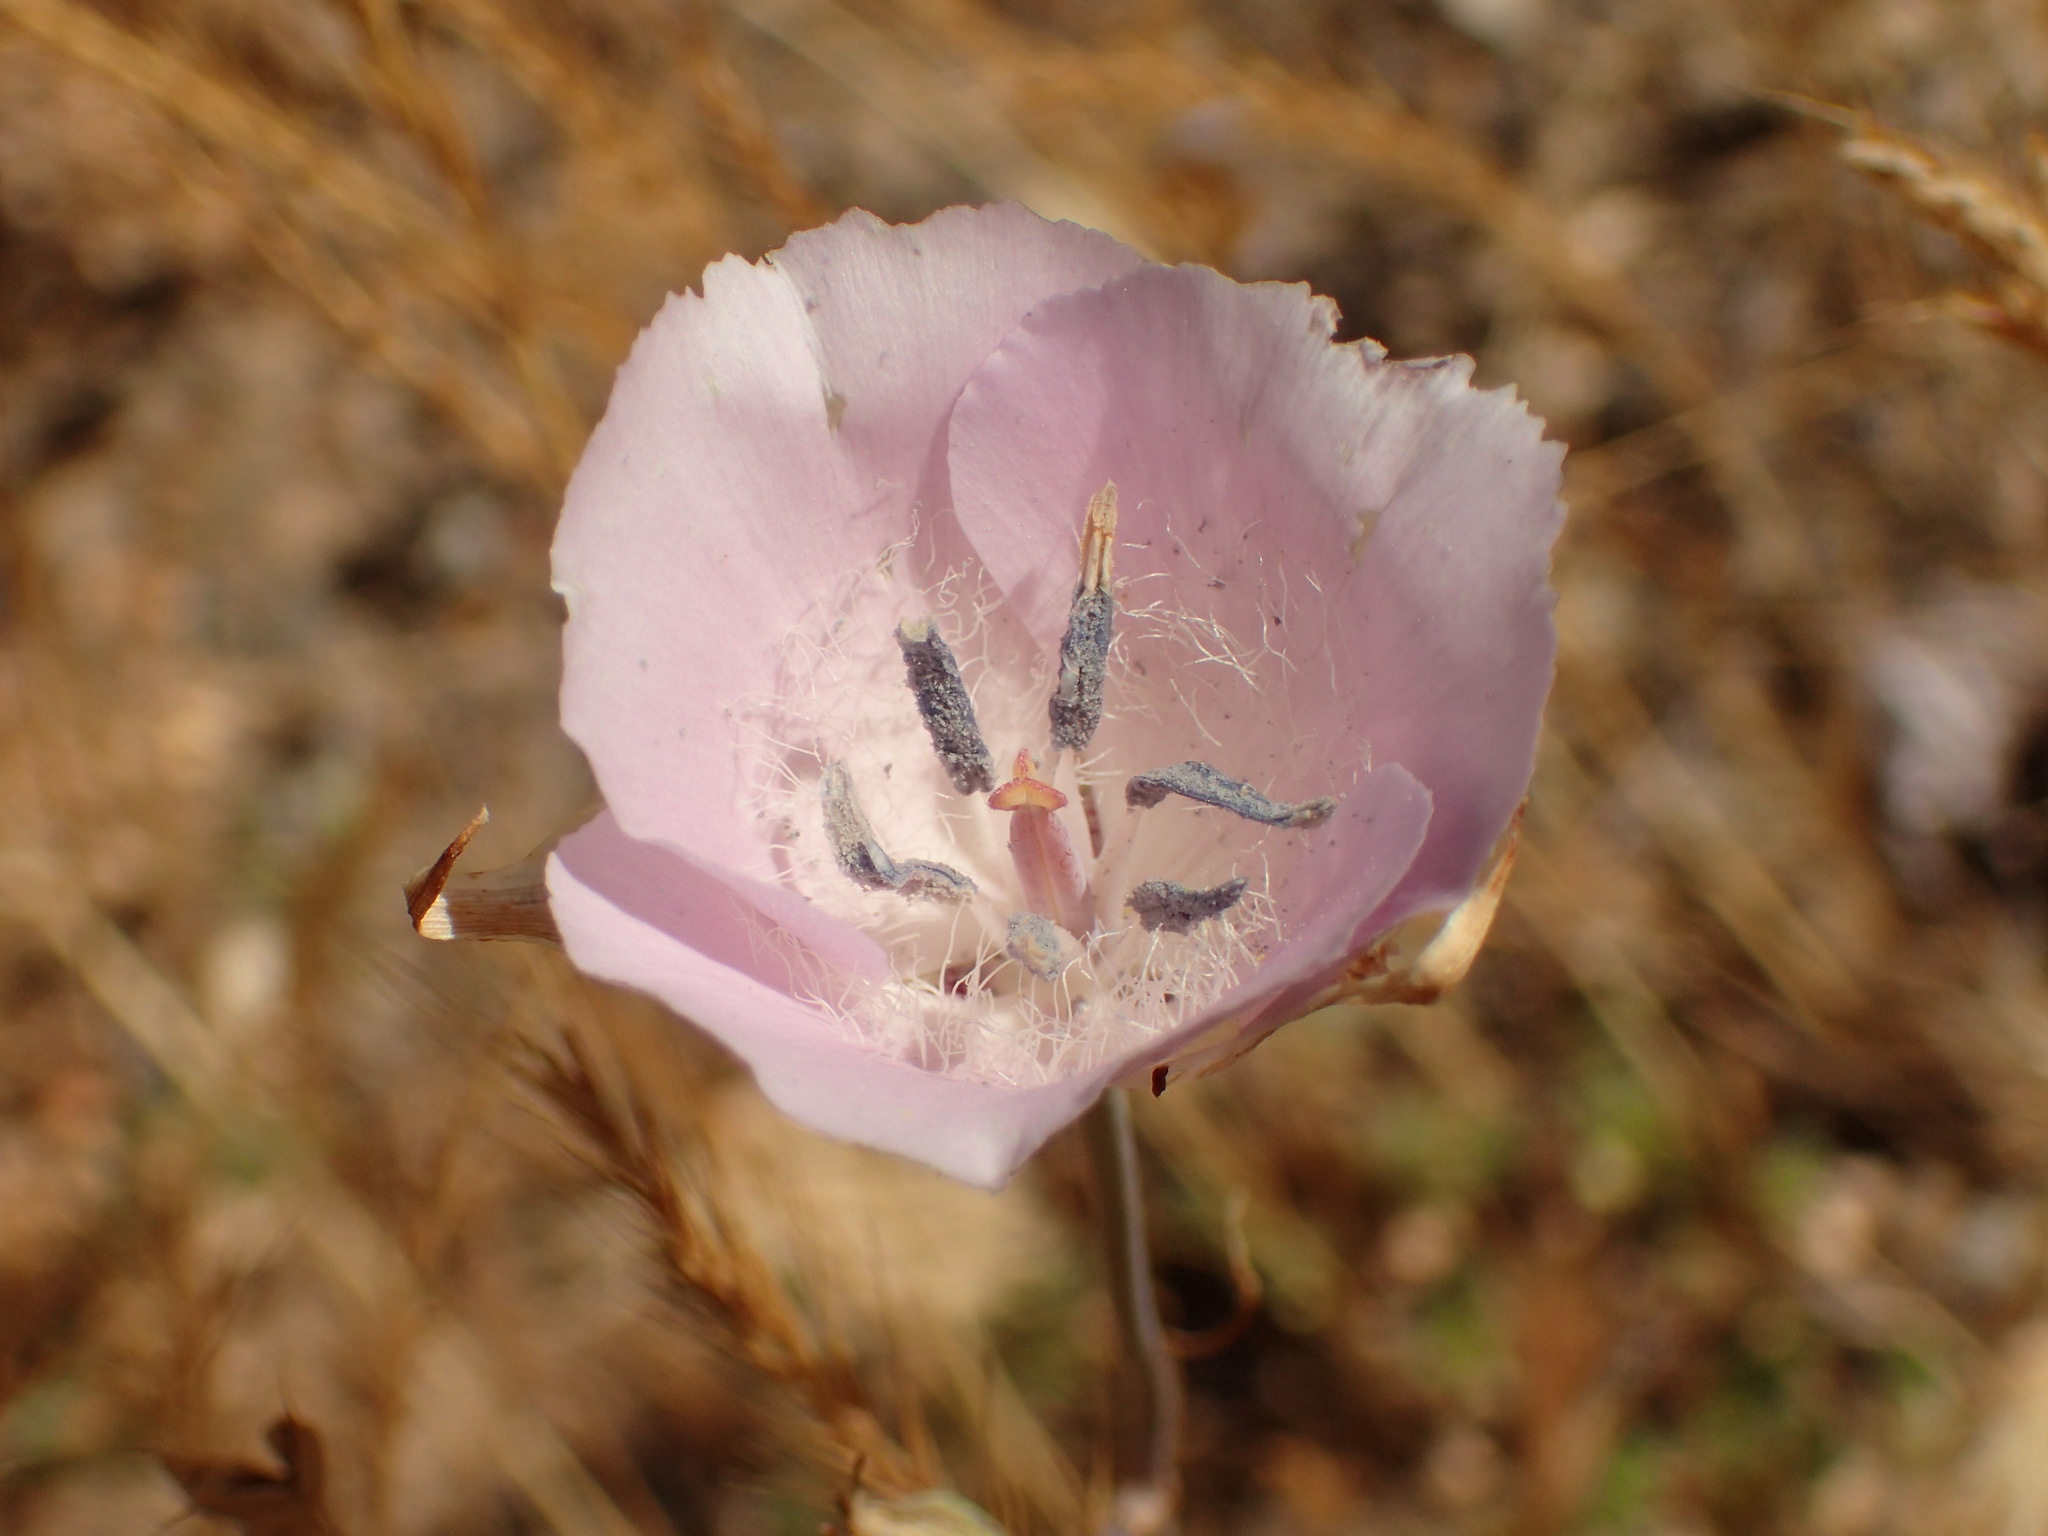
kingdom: Plantae
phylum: Tracheophyta
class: Liliopsida
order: Liliales
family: Liliaceae
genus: Calochortus
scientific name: Calochortus splendens
